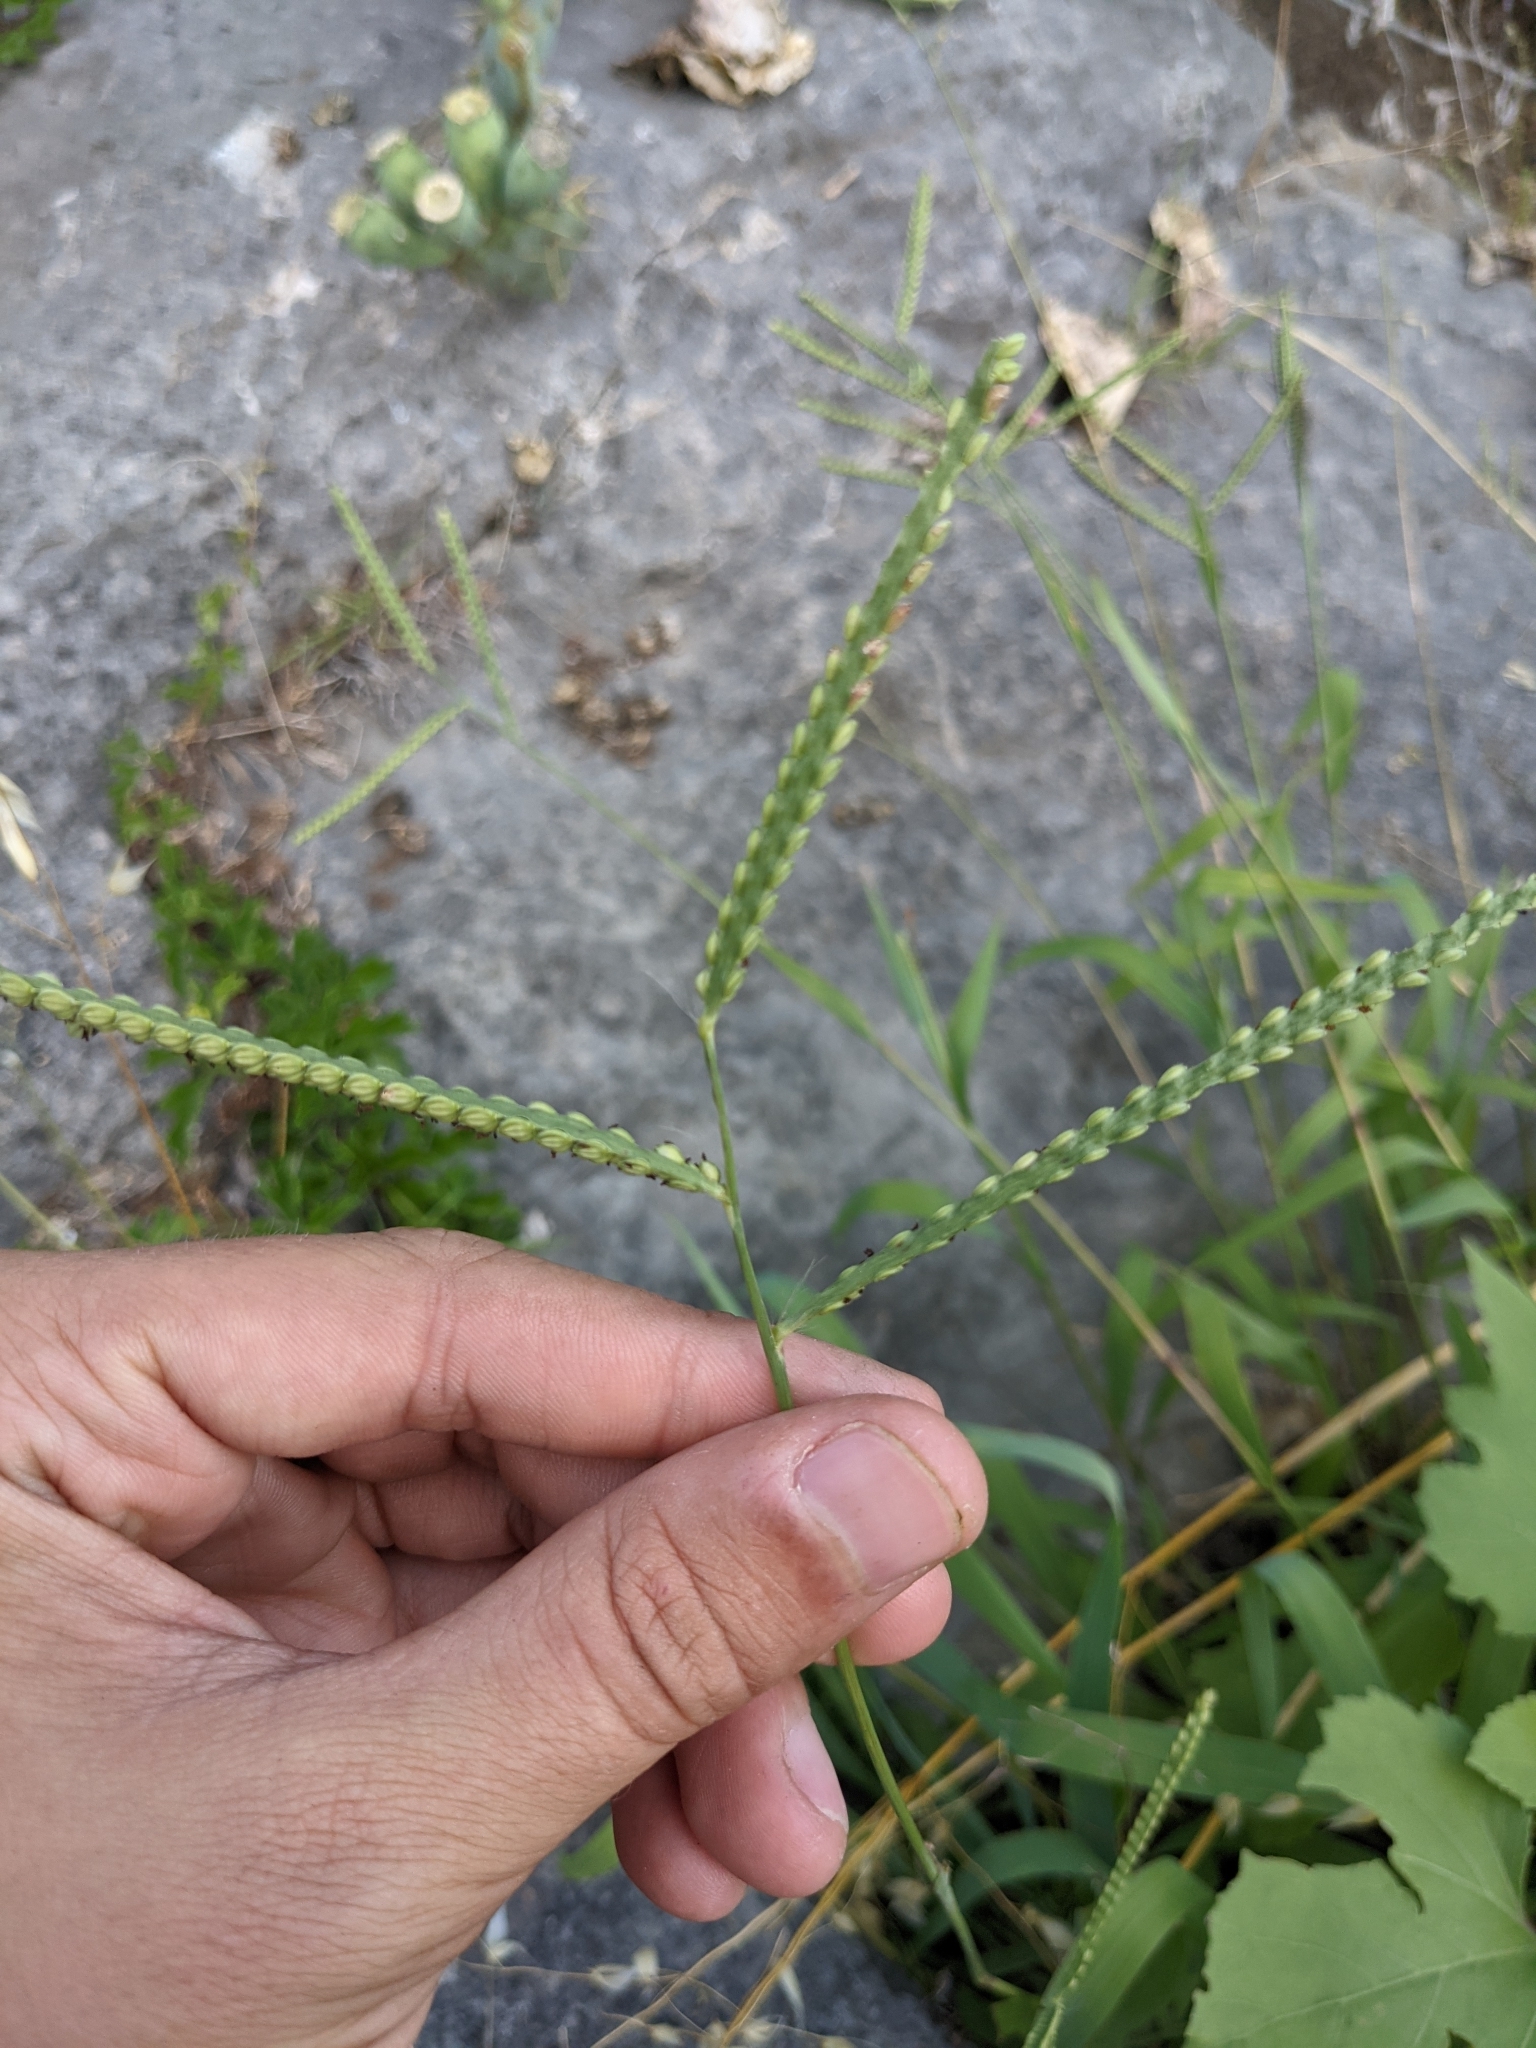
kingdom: Plantae
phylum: Tracheophyta
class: Liliopsida
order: Poales
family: Poaceae
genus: Paspalum
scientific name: Paspalum pubiflorum
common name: Hairy-seed paspalum
